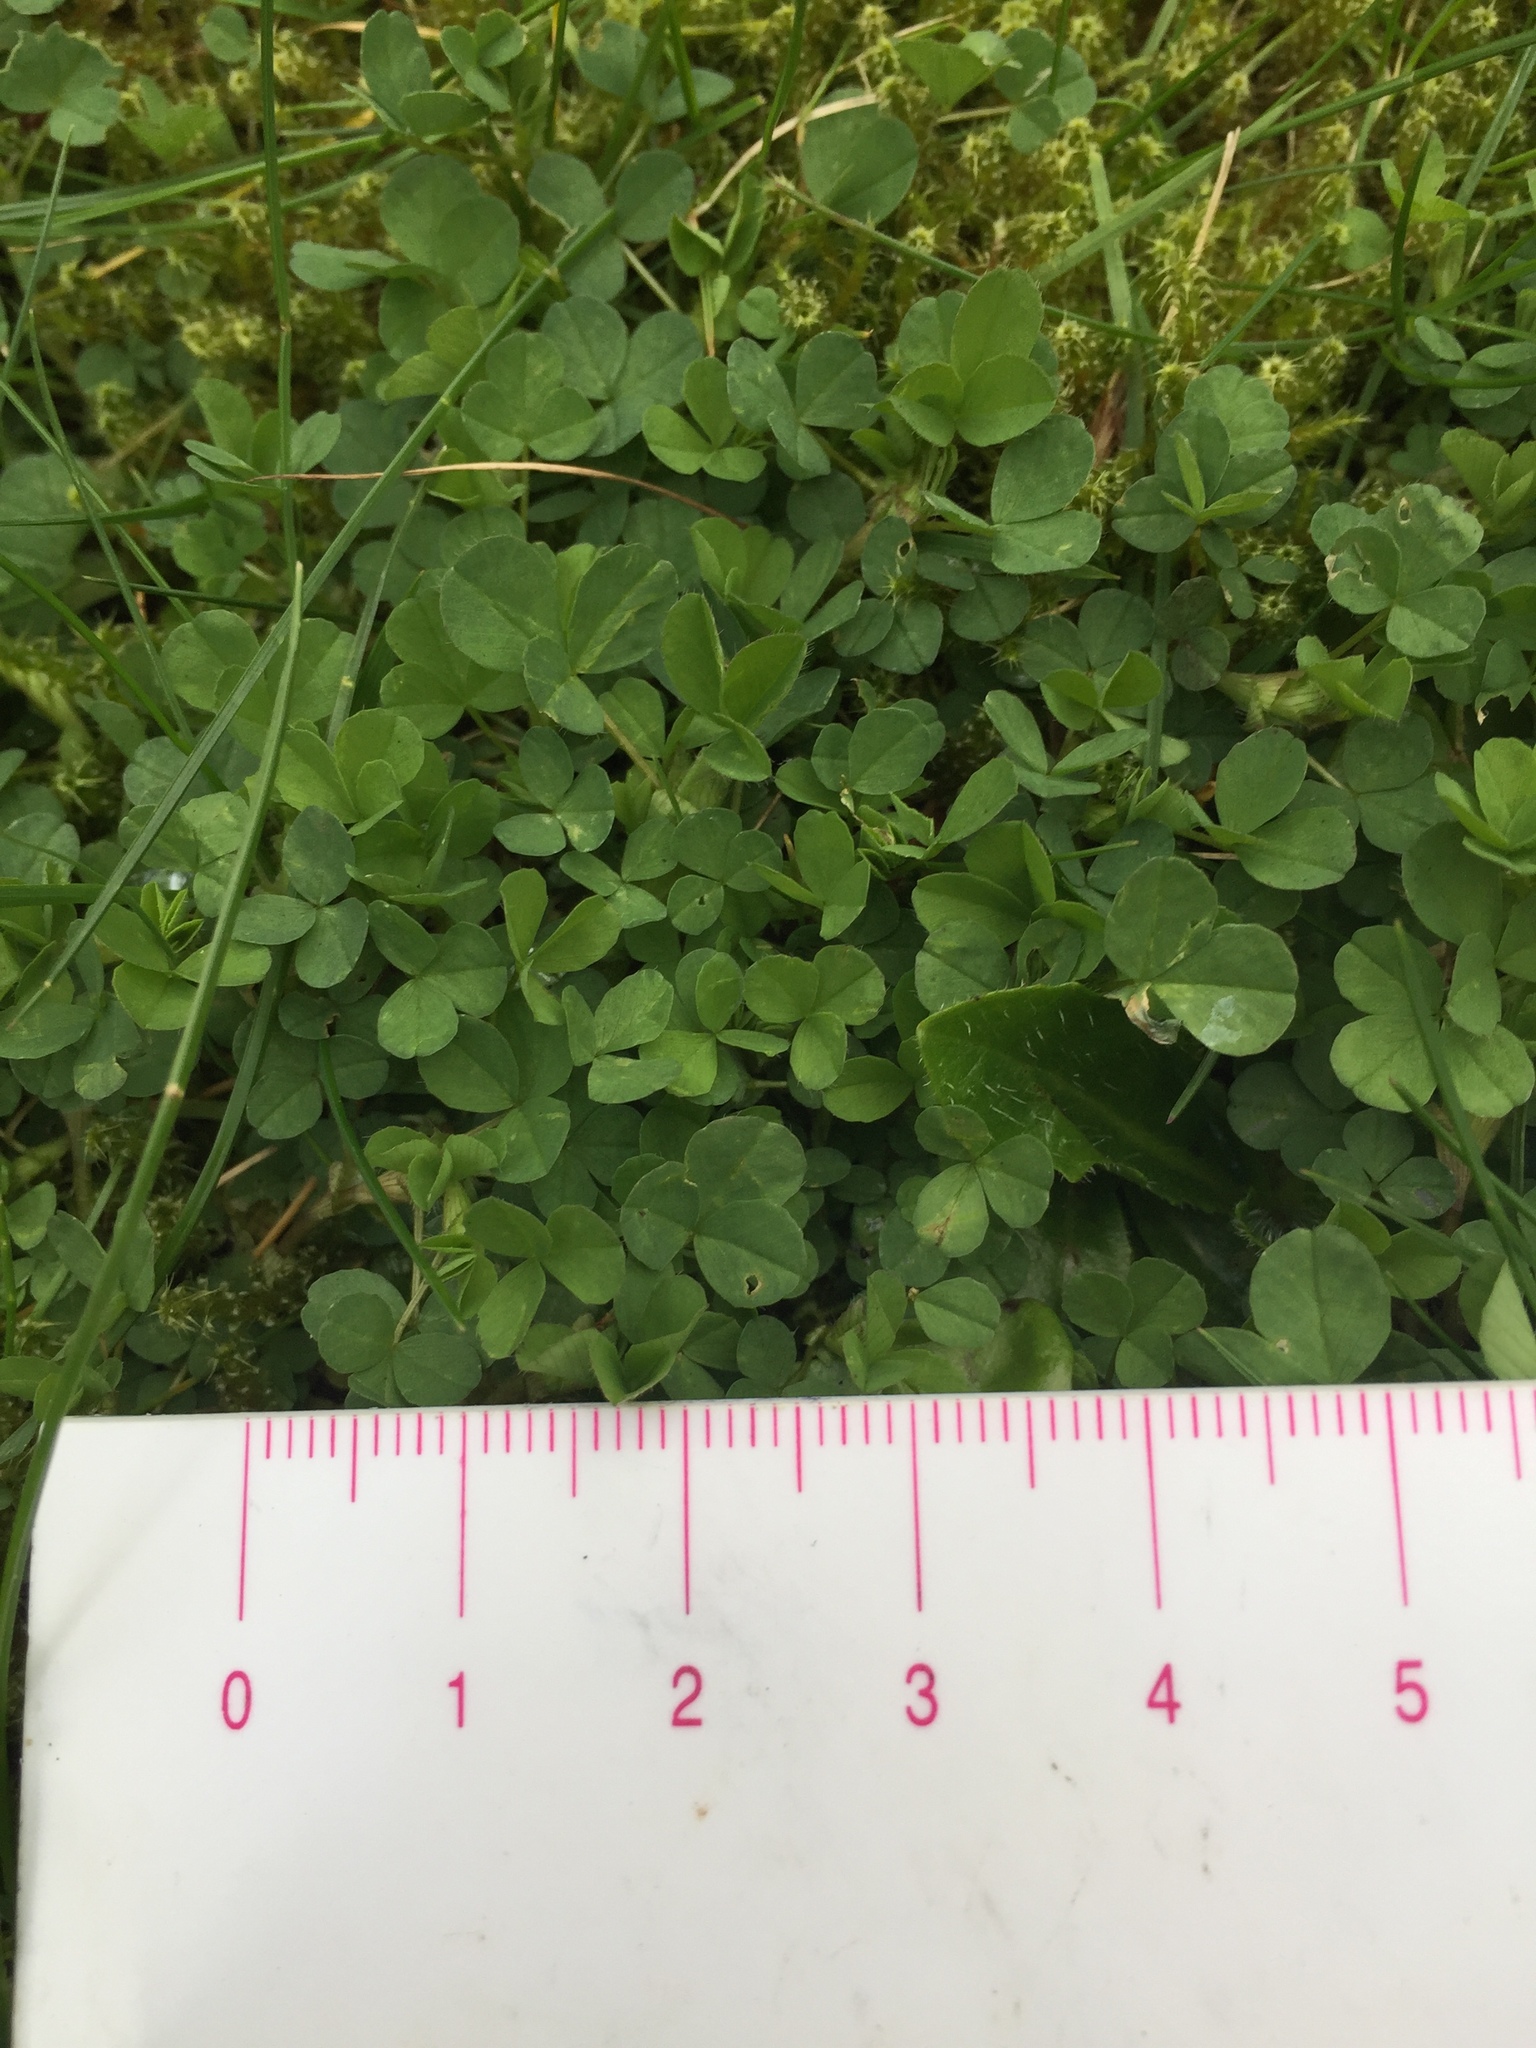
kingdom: Plantae
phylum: Tracheophyta
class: Magnoliopsida
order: Fabales
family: Fabaceae
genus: Trifolium
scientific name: Trifolium repens
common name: White clover
